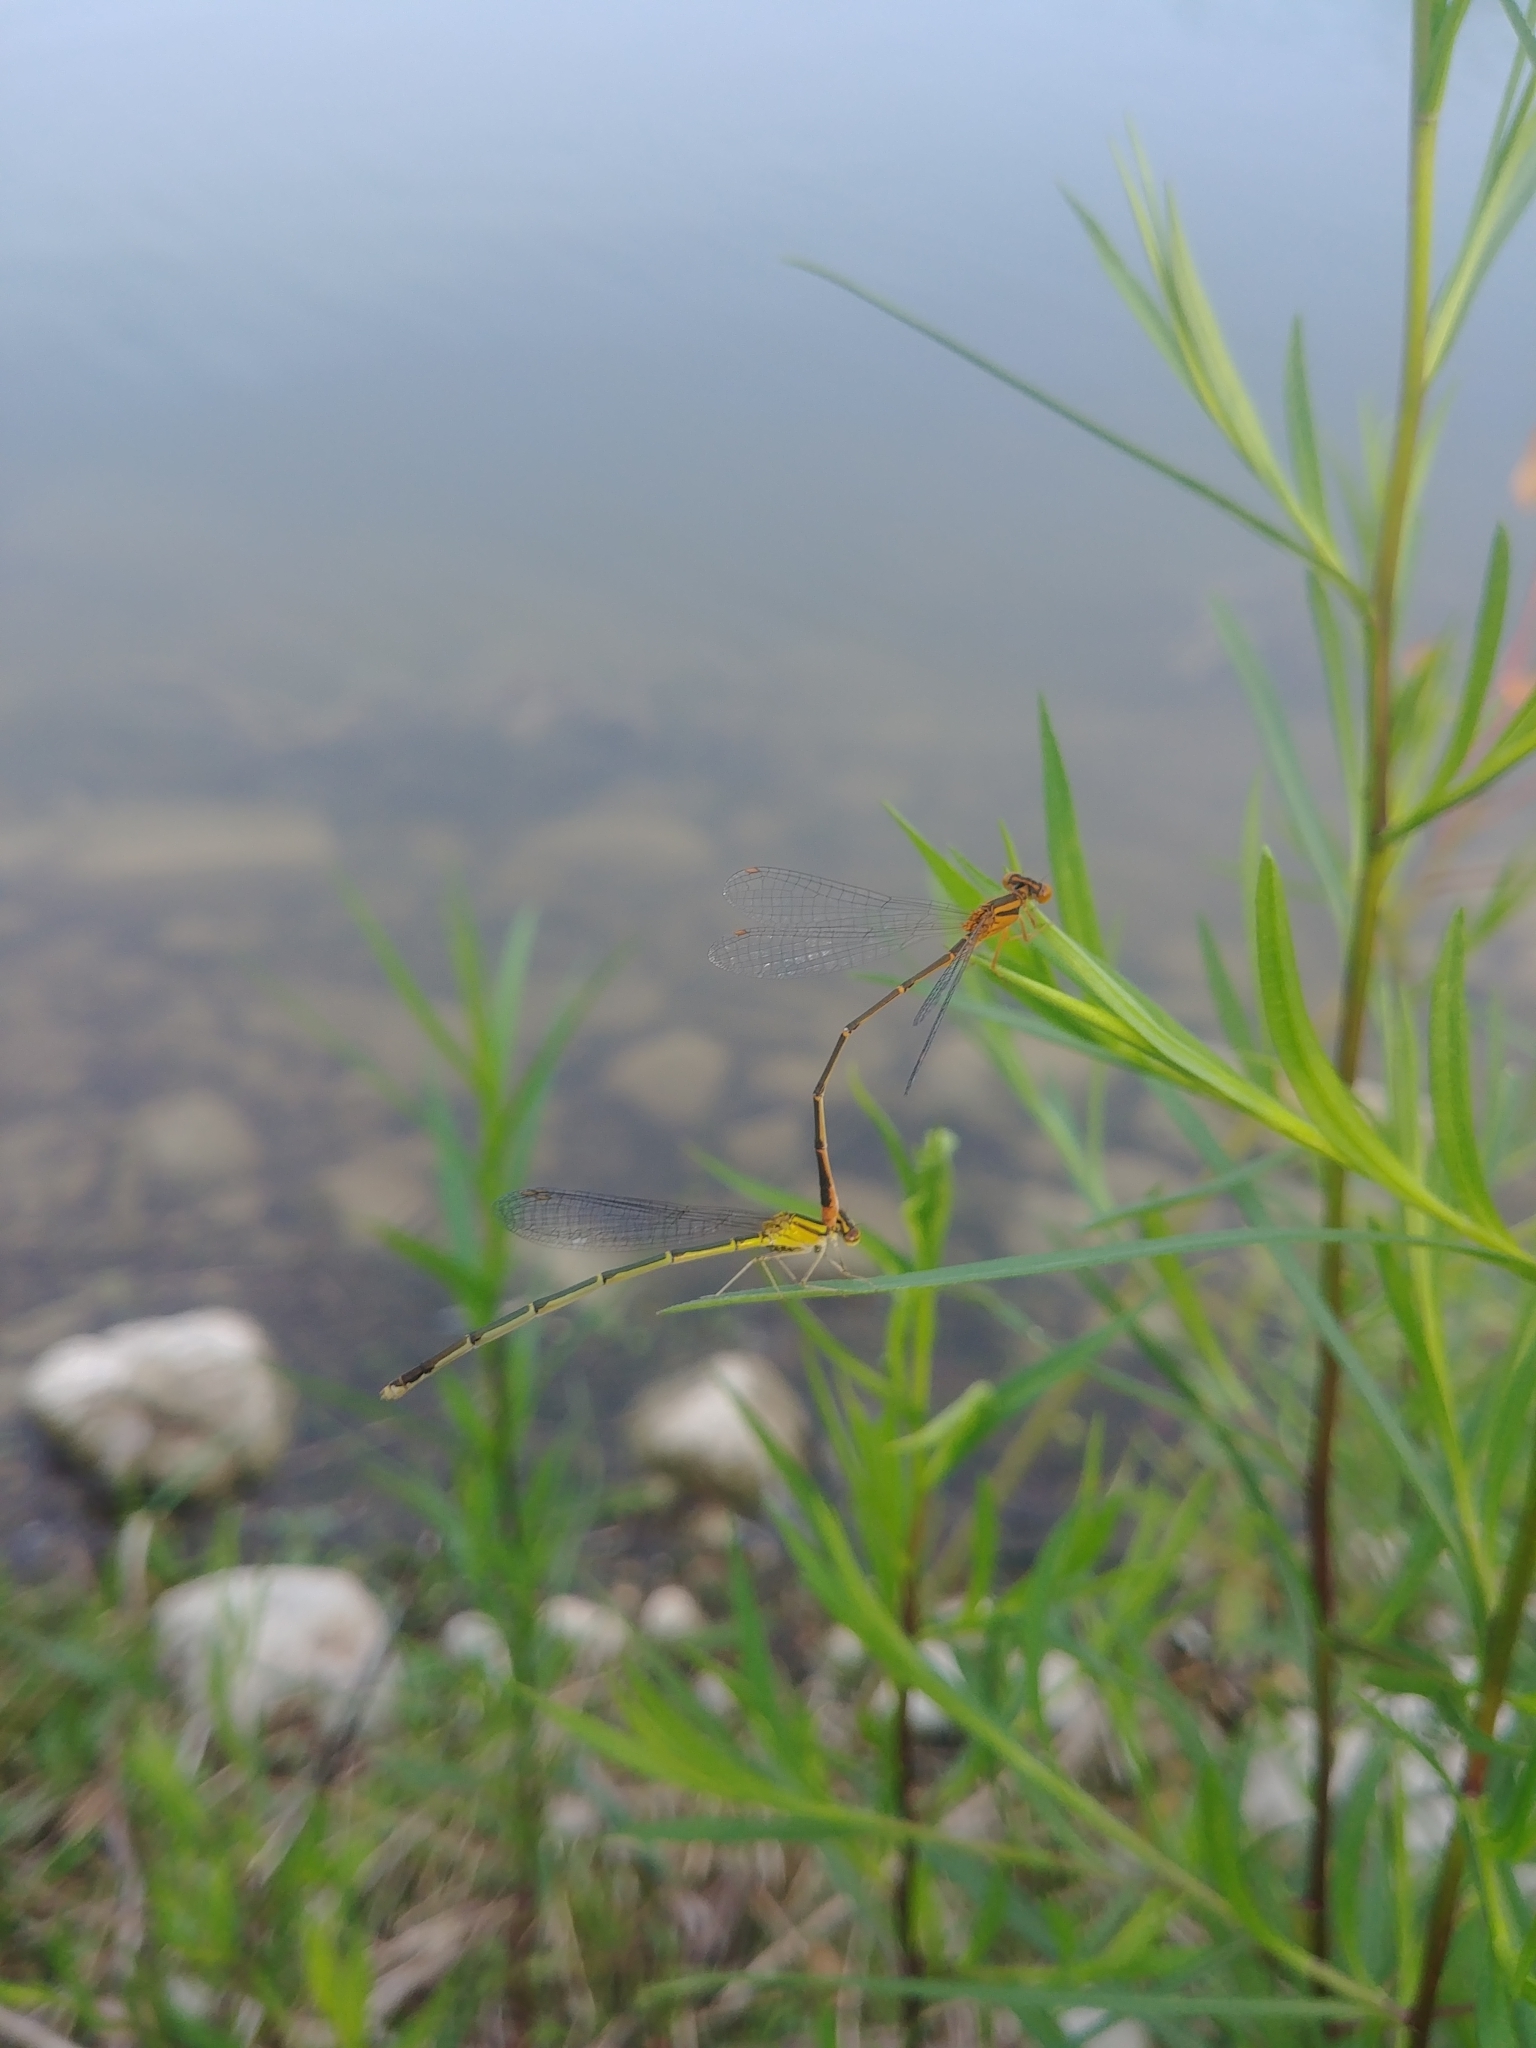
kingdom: Animalia
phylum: Arthropoda
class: Insecta
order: Odonata
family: Coenagrionidae
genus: Enallagma
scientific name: Enallagma signatum
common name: Orange bluet
